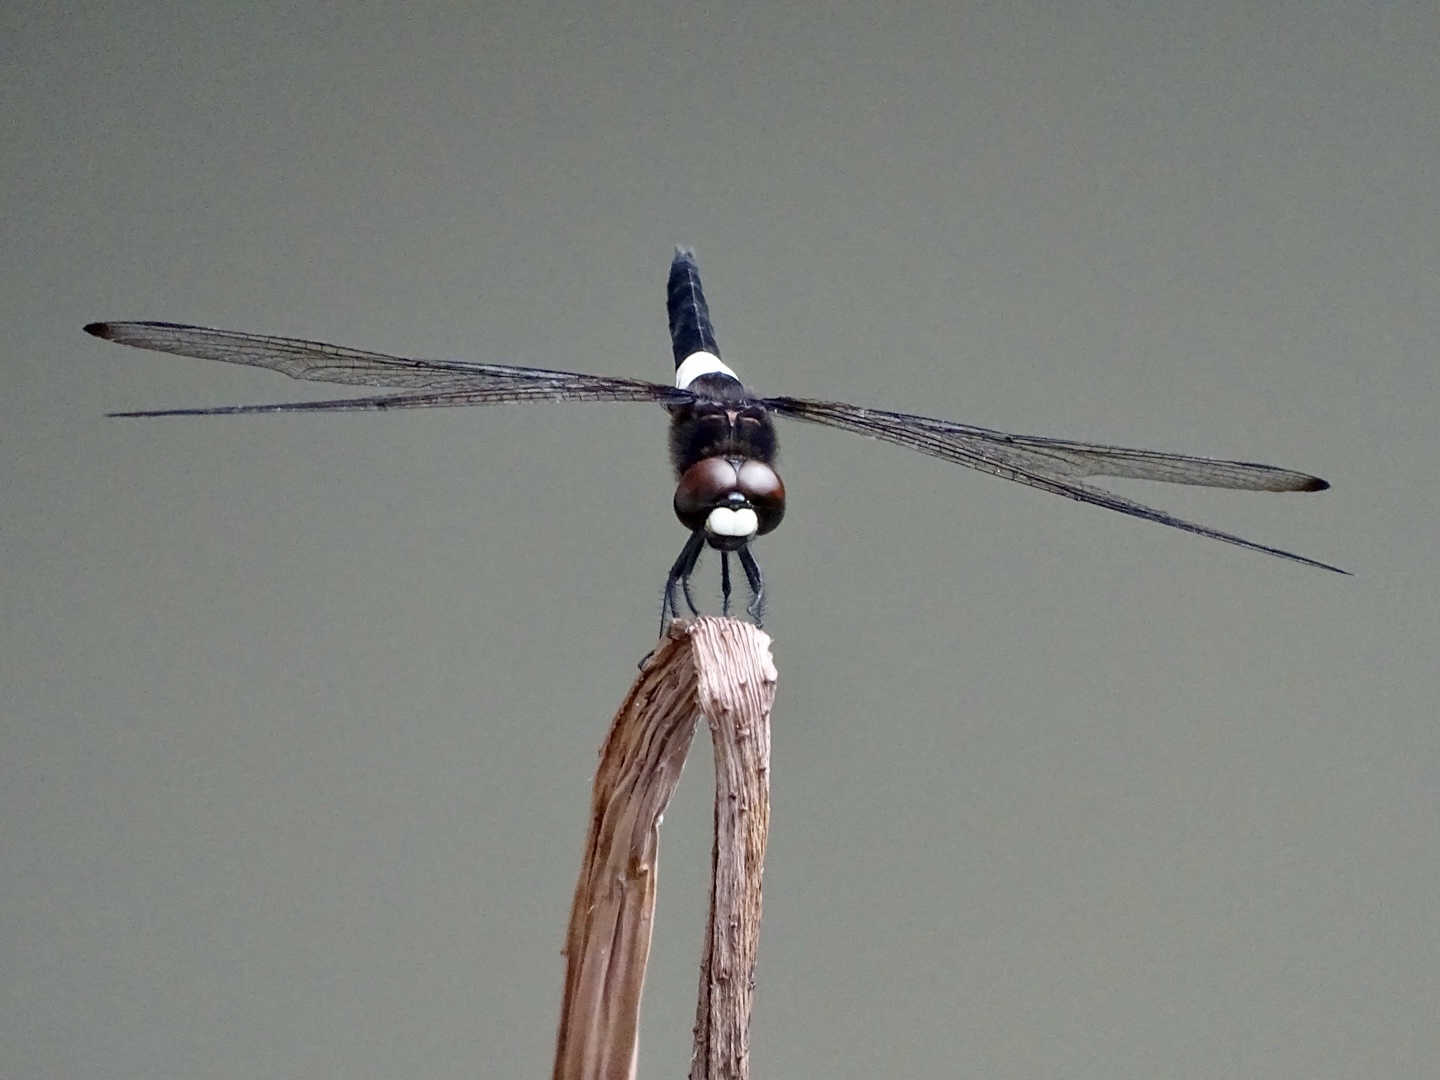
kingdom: Animalia
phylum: Arthropoda
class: Insecta
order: Odonata
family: Libellulidae
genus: Pseudothemis
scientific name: Pseudothemis zonata
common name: Pied skimmer
